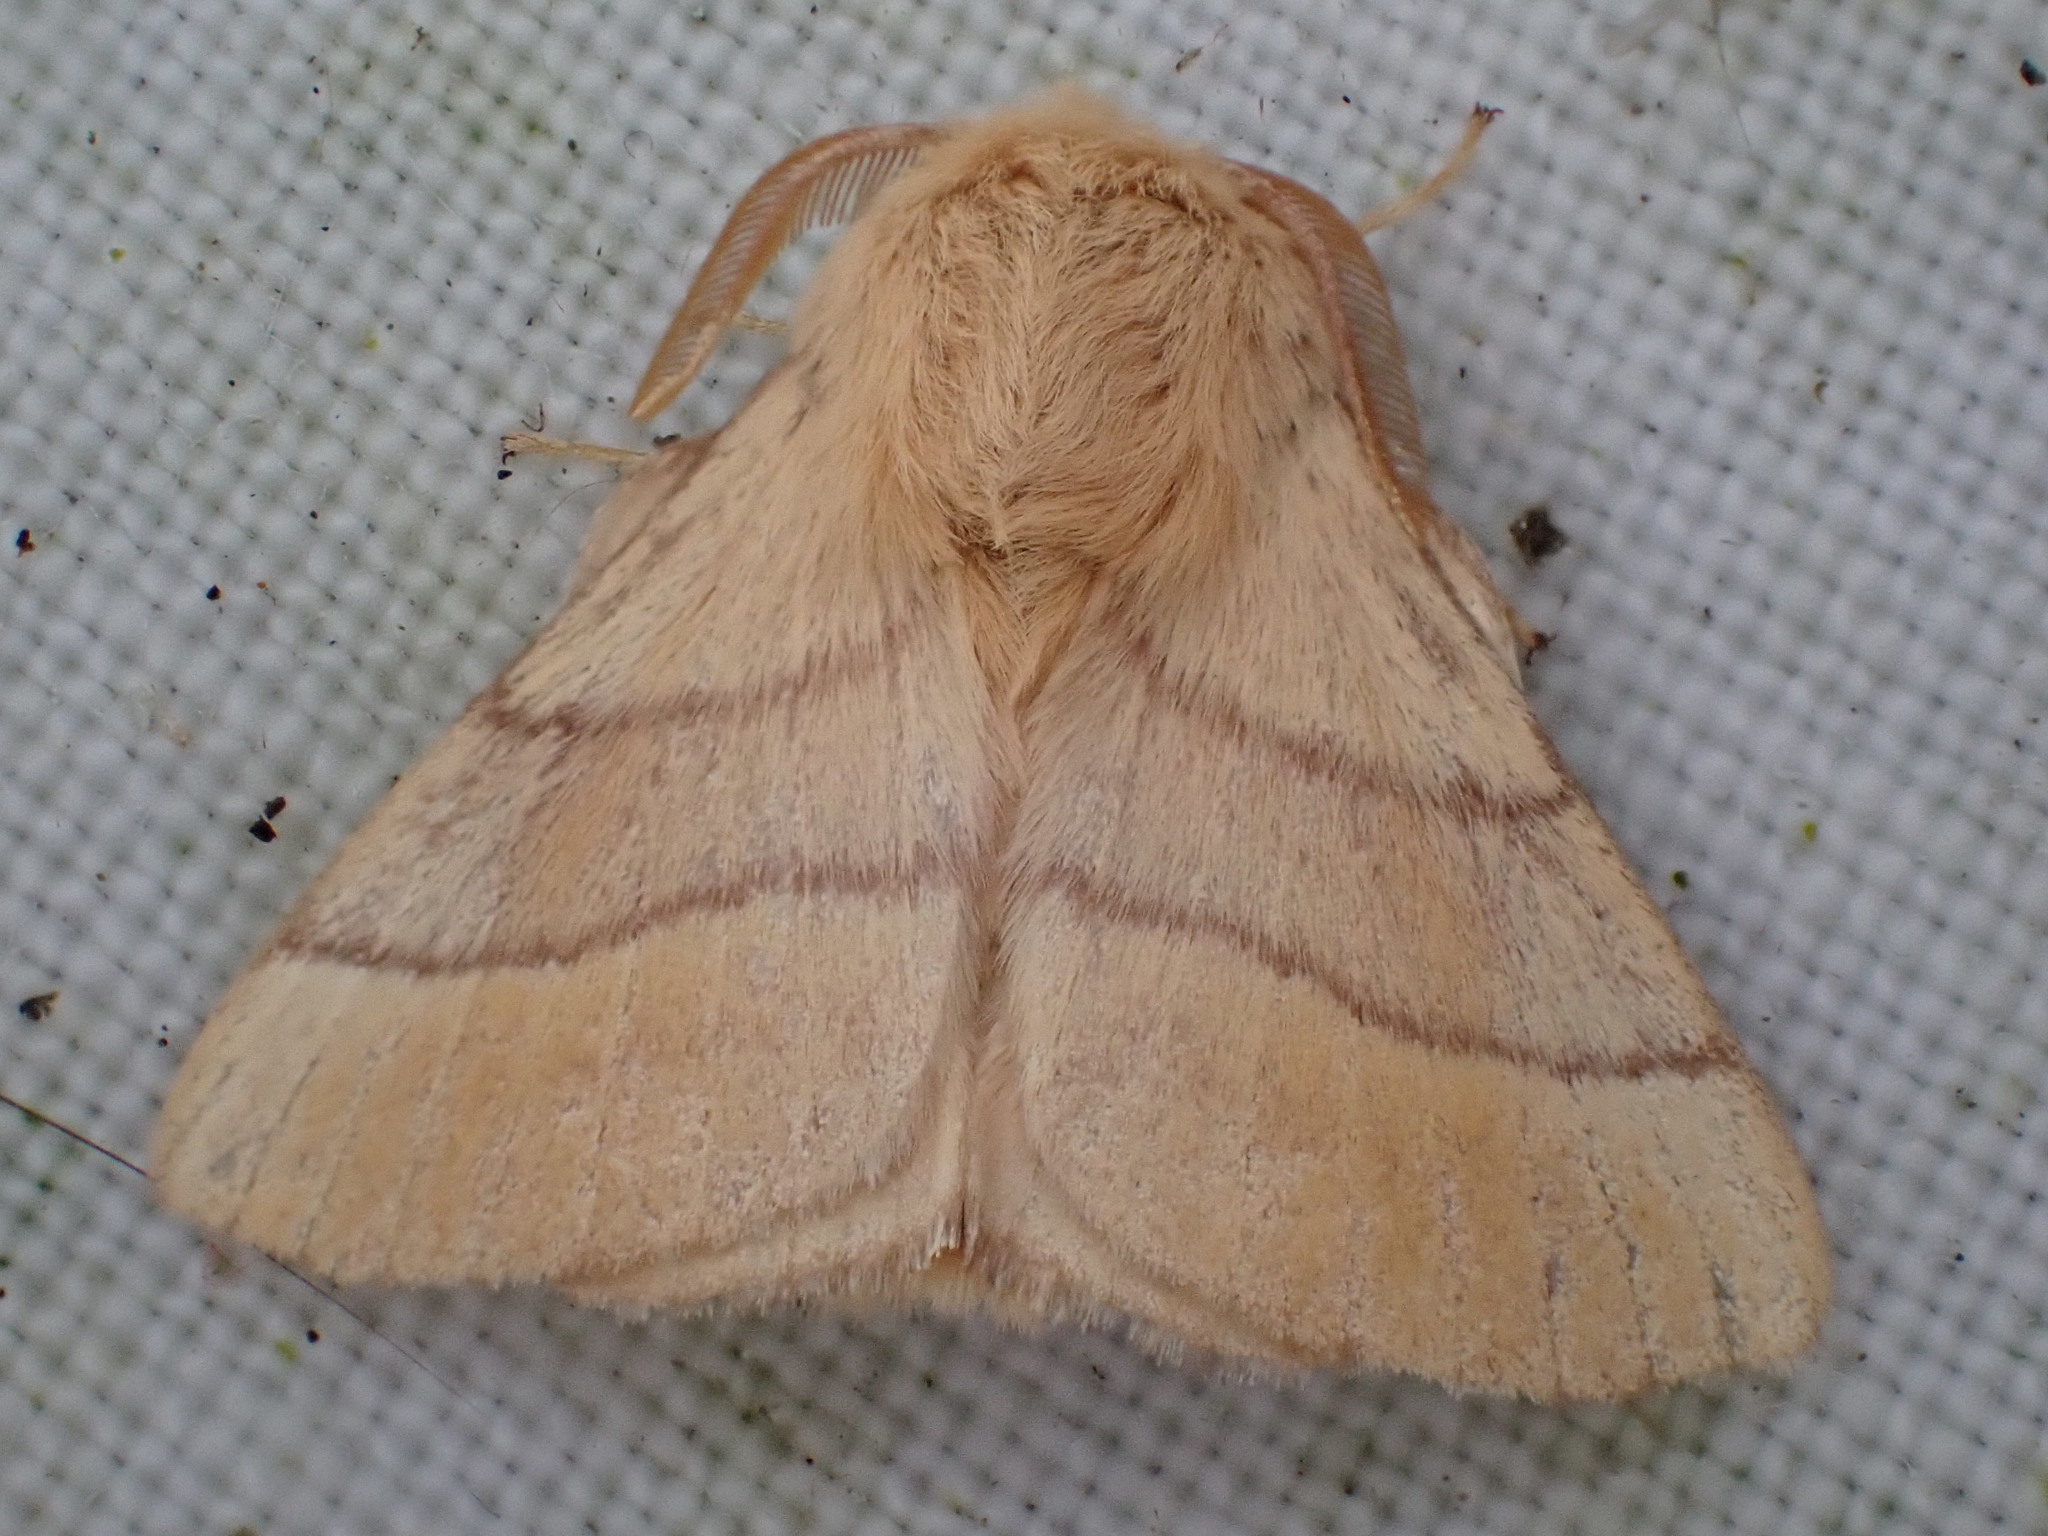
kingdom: Animalia
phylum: Arthropoda
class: Insecta
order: Lepidoptera
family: Lasiocampidae
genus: Malacosoma
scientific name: Malacosoma neustria
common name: The lackey
